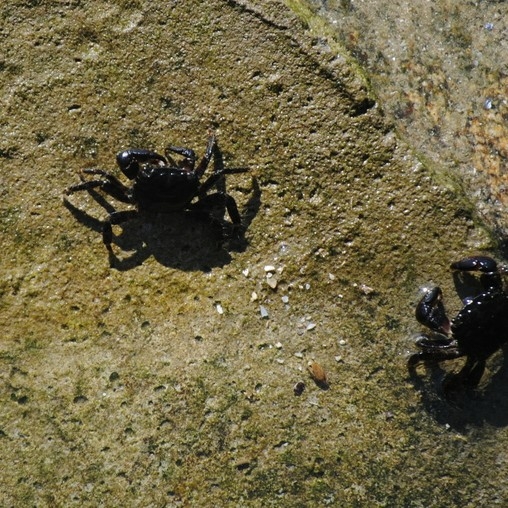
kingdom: Animalia
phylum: Arthropoda
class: Malacostraca
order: Decapoda
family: Grapsidae
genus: Pachygrapsus
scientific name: Pachygrapsus marmoratus
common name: Marbled rock crab
